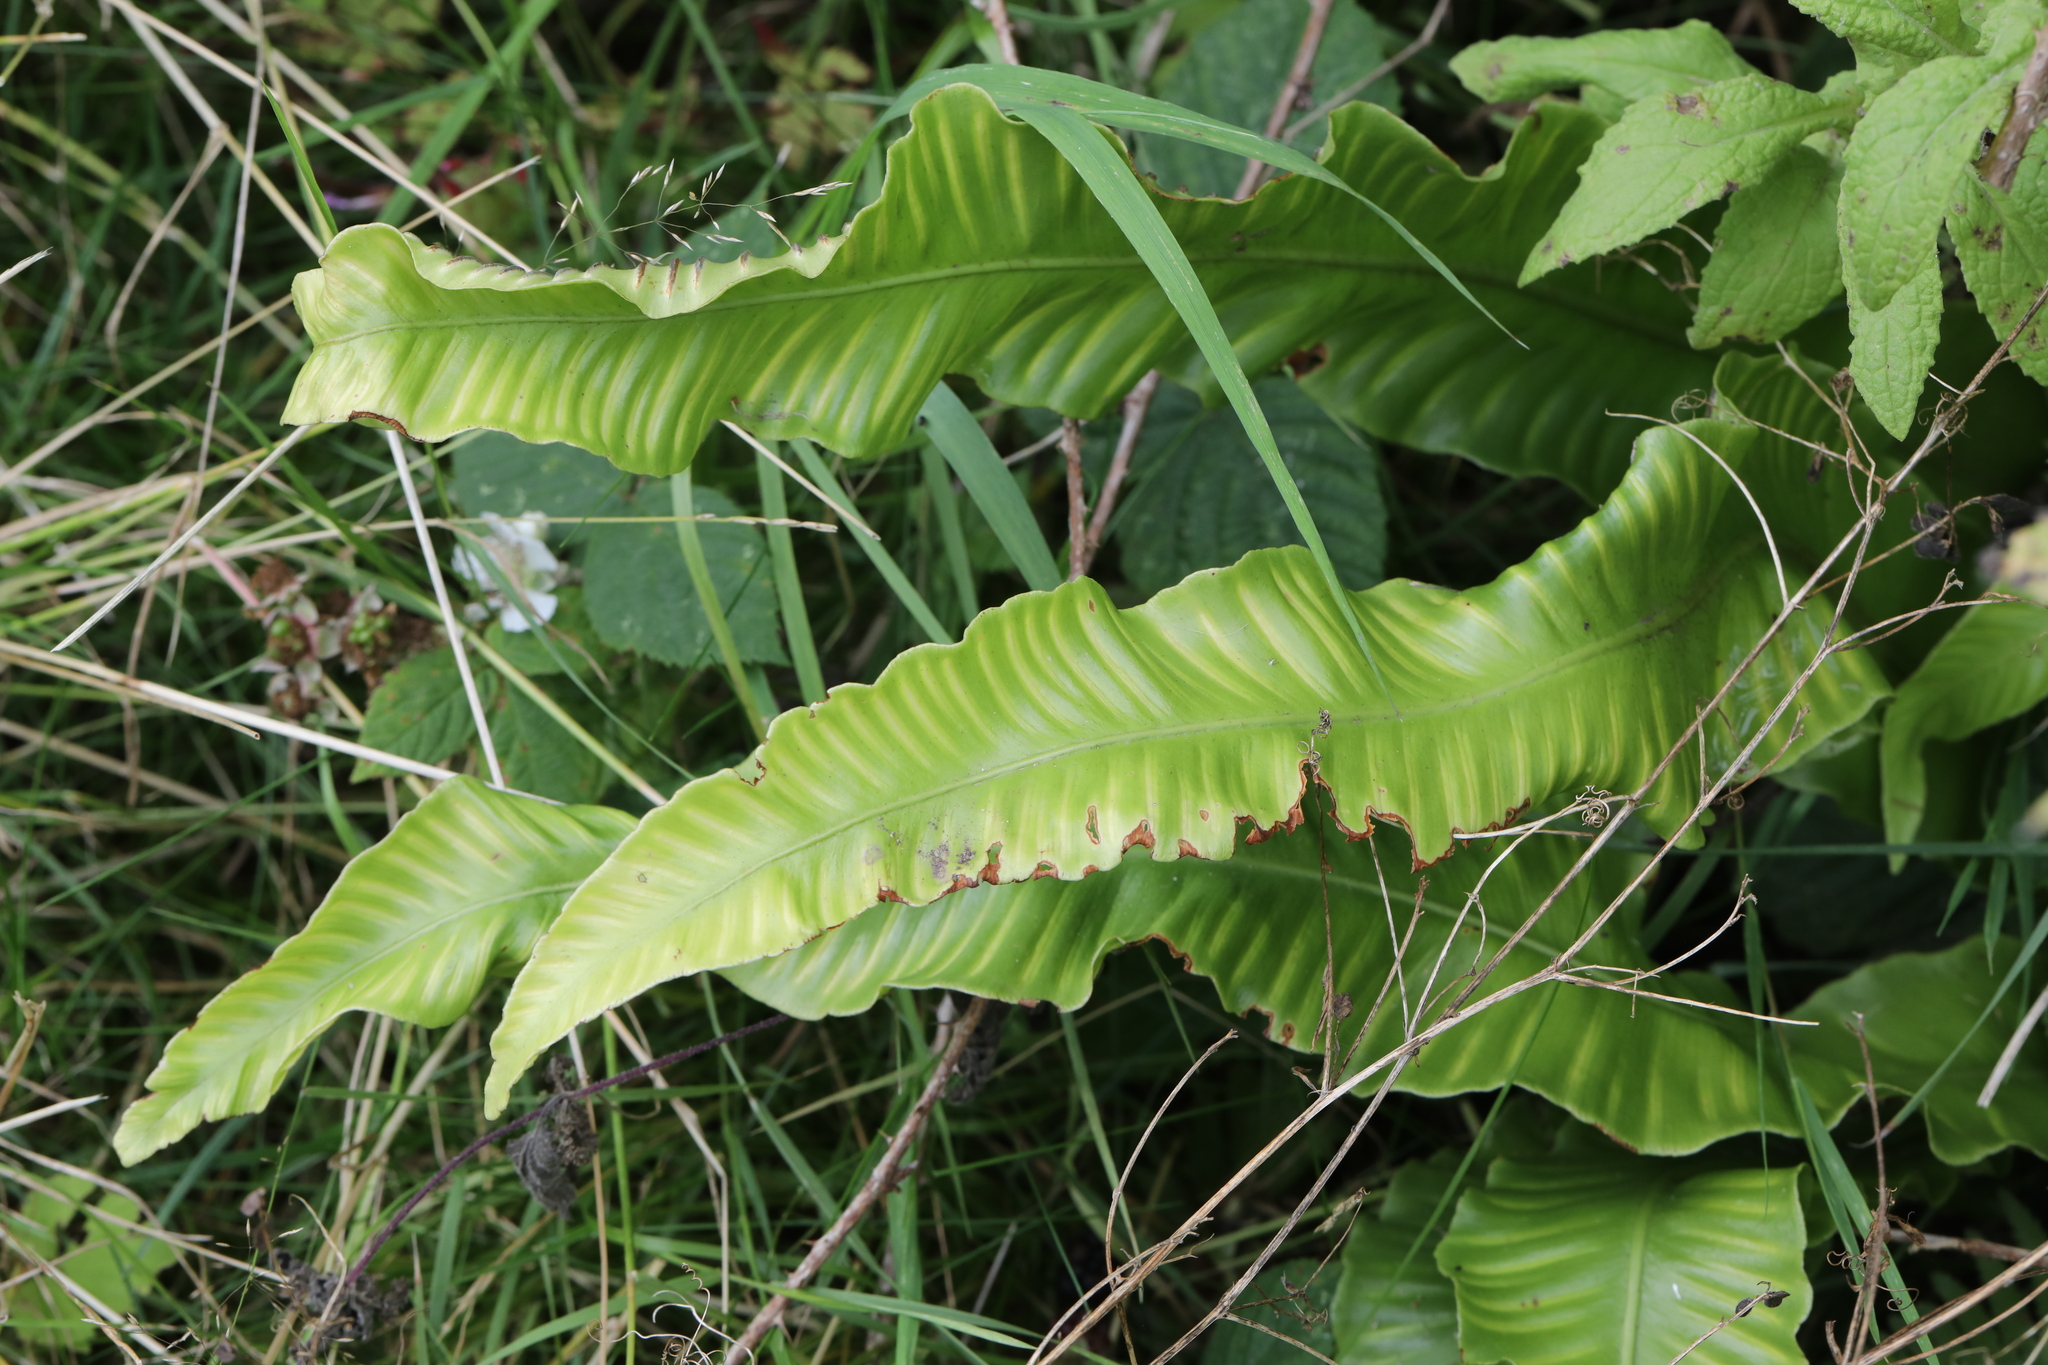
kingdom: Plantae
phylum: Tracheophyta
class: Polypodiopsida
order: Polypodiales
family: Aspleniaceae
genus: Asplenium
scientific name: Asplenium scolopendrium
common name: Hart's-tongue fern
